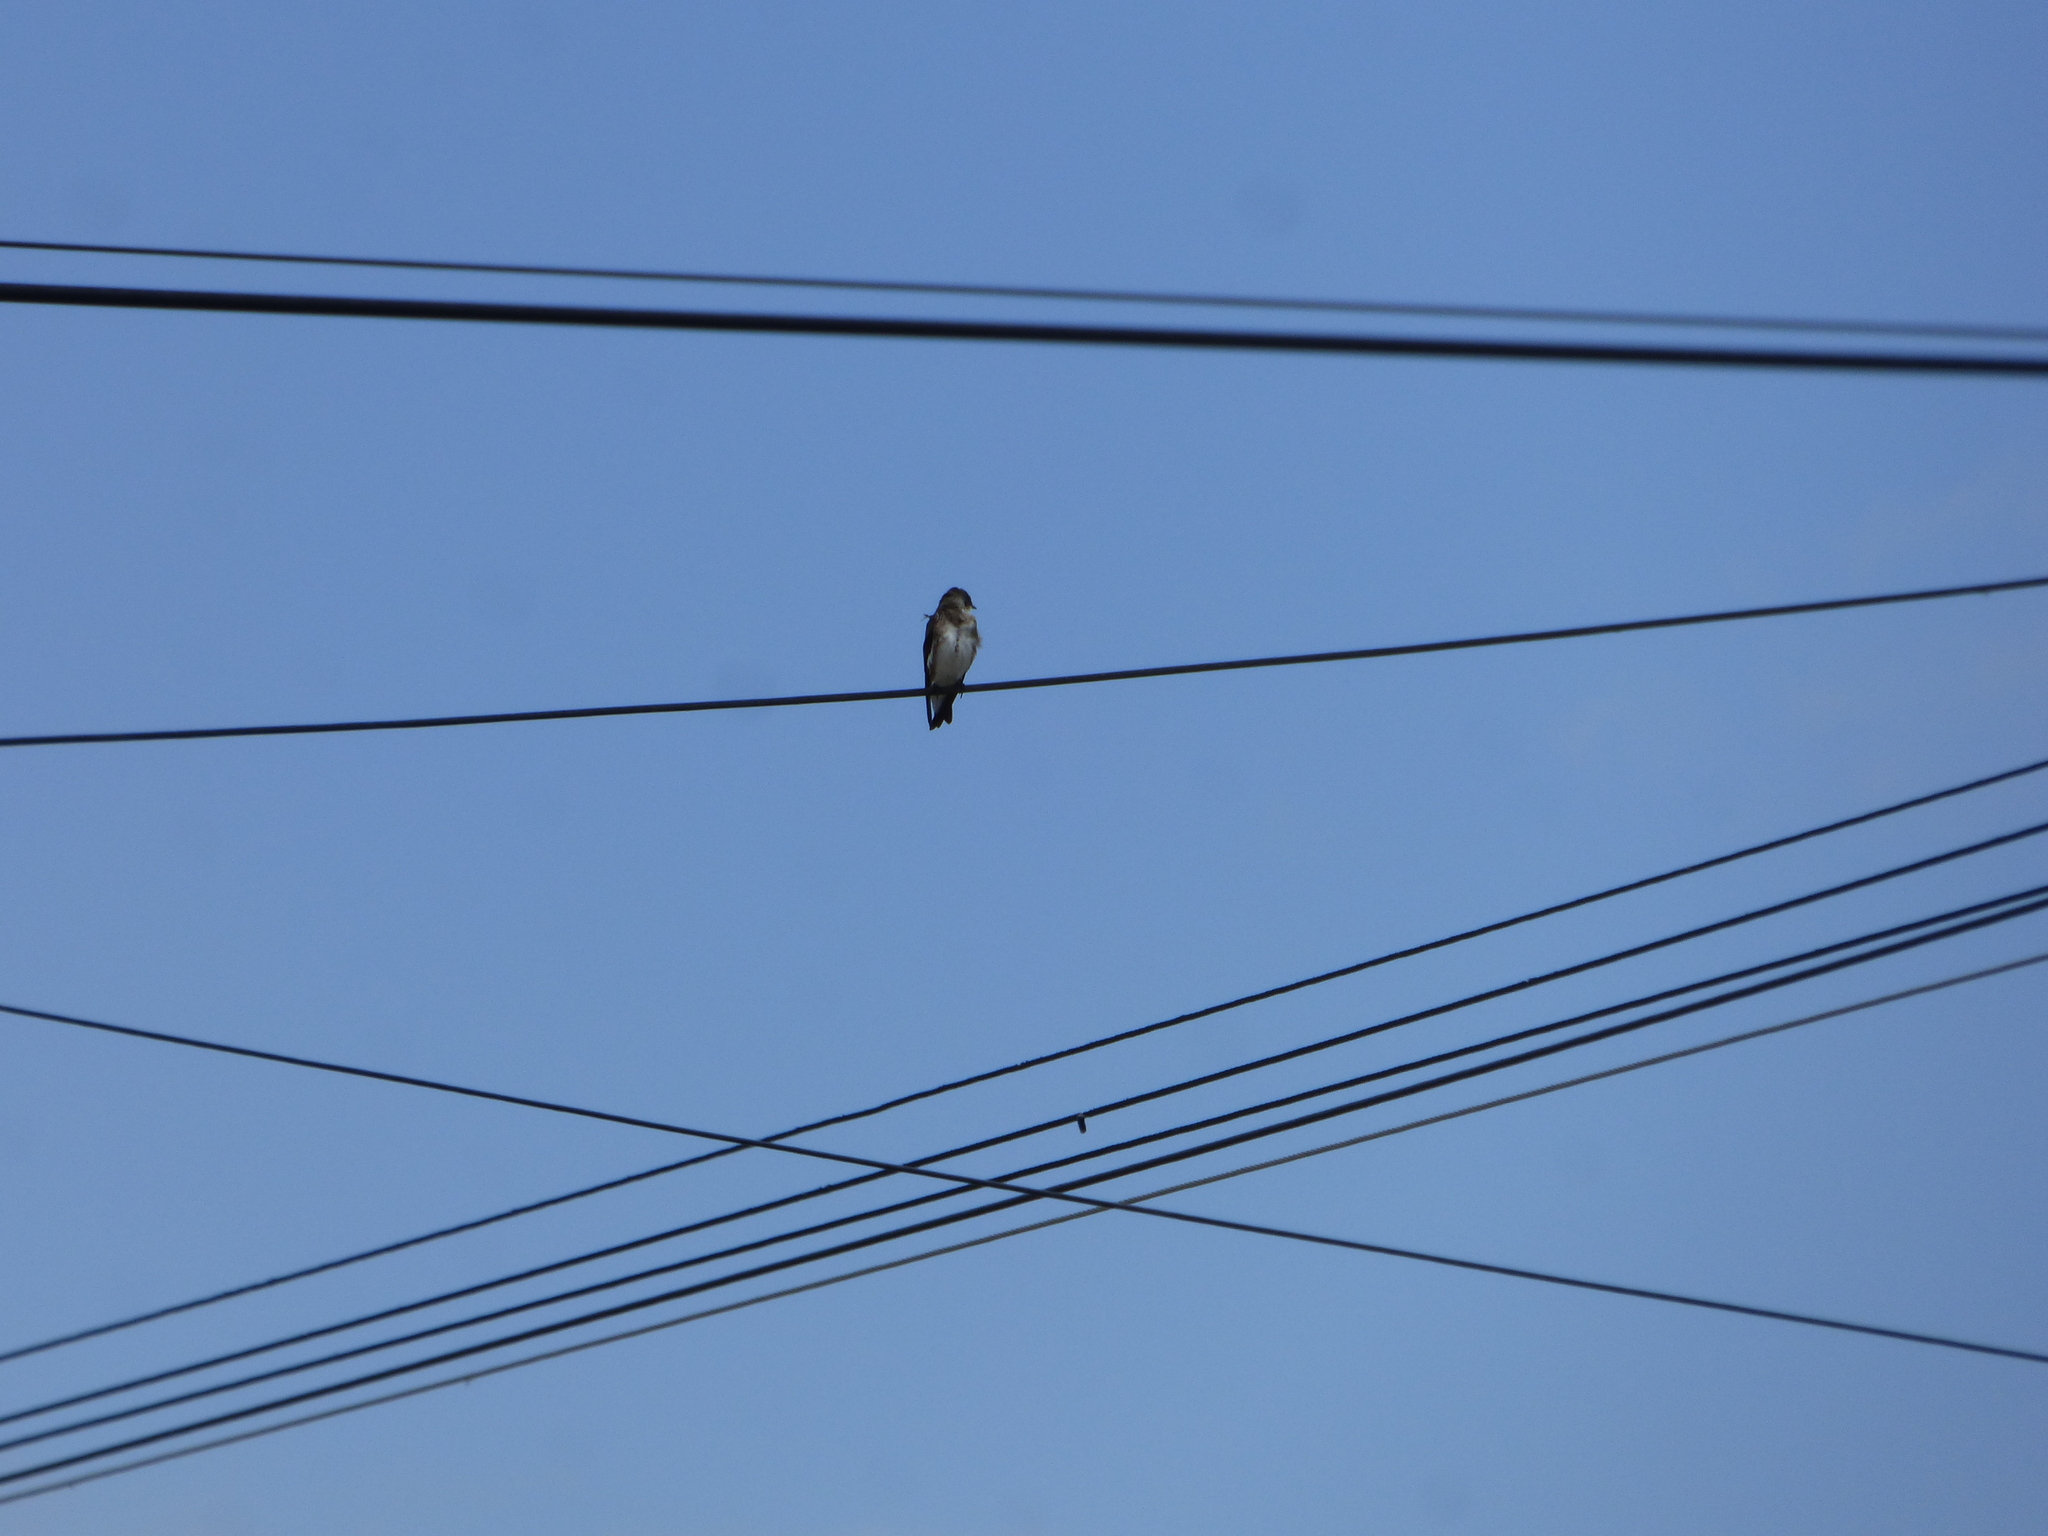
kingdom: Animalia
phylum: Chordata
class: Aves
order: Passeriformes
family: Hirundinidae
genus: Progne
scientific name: Progne tapera
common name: Brown-chested martin
